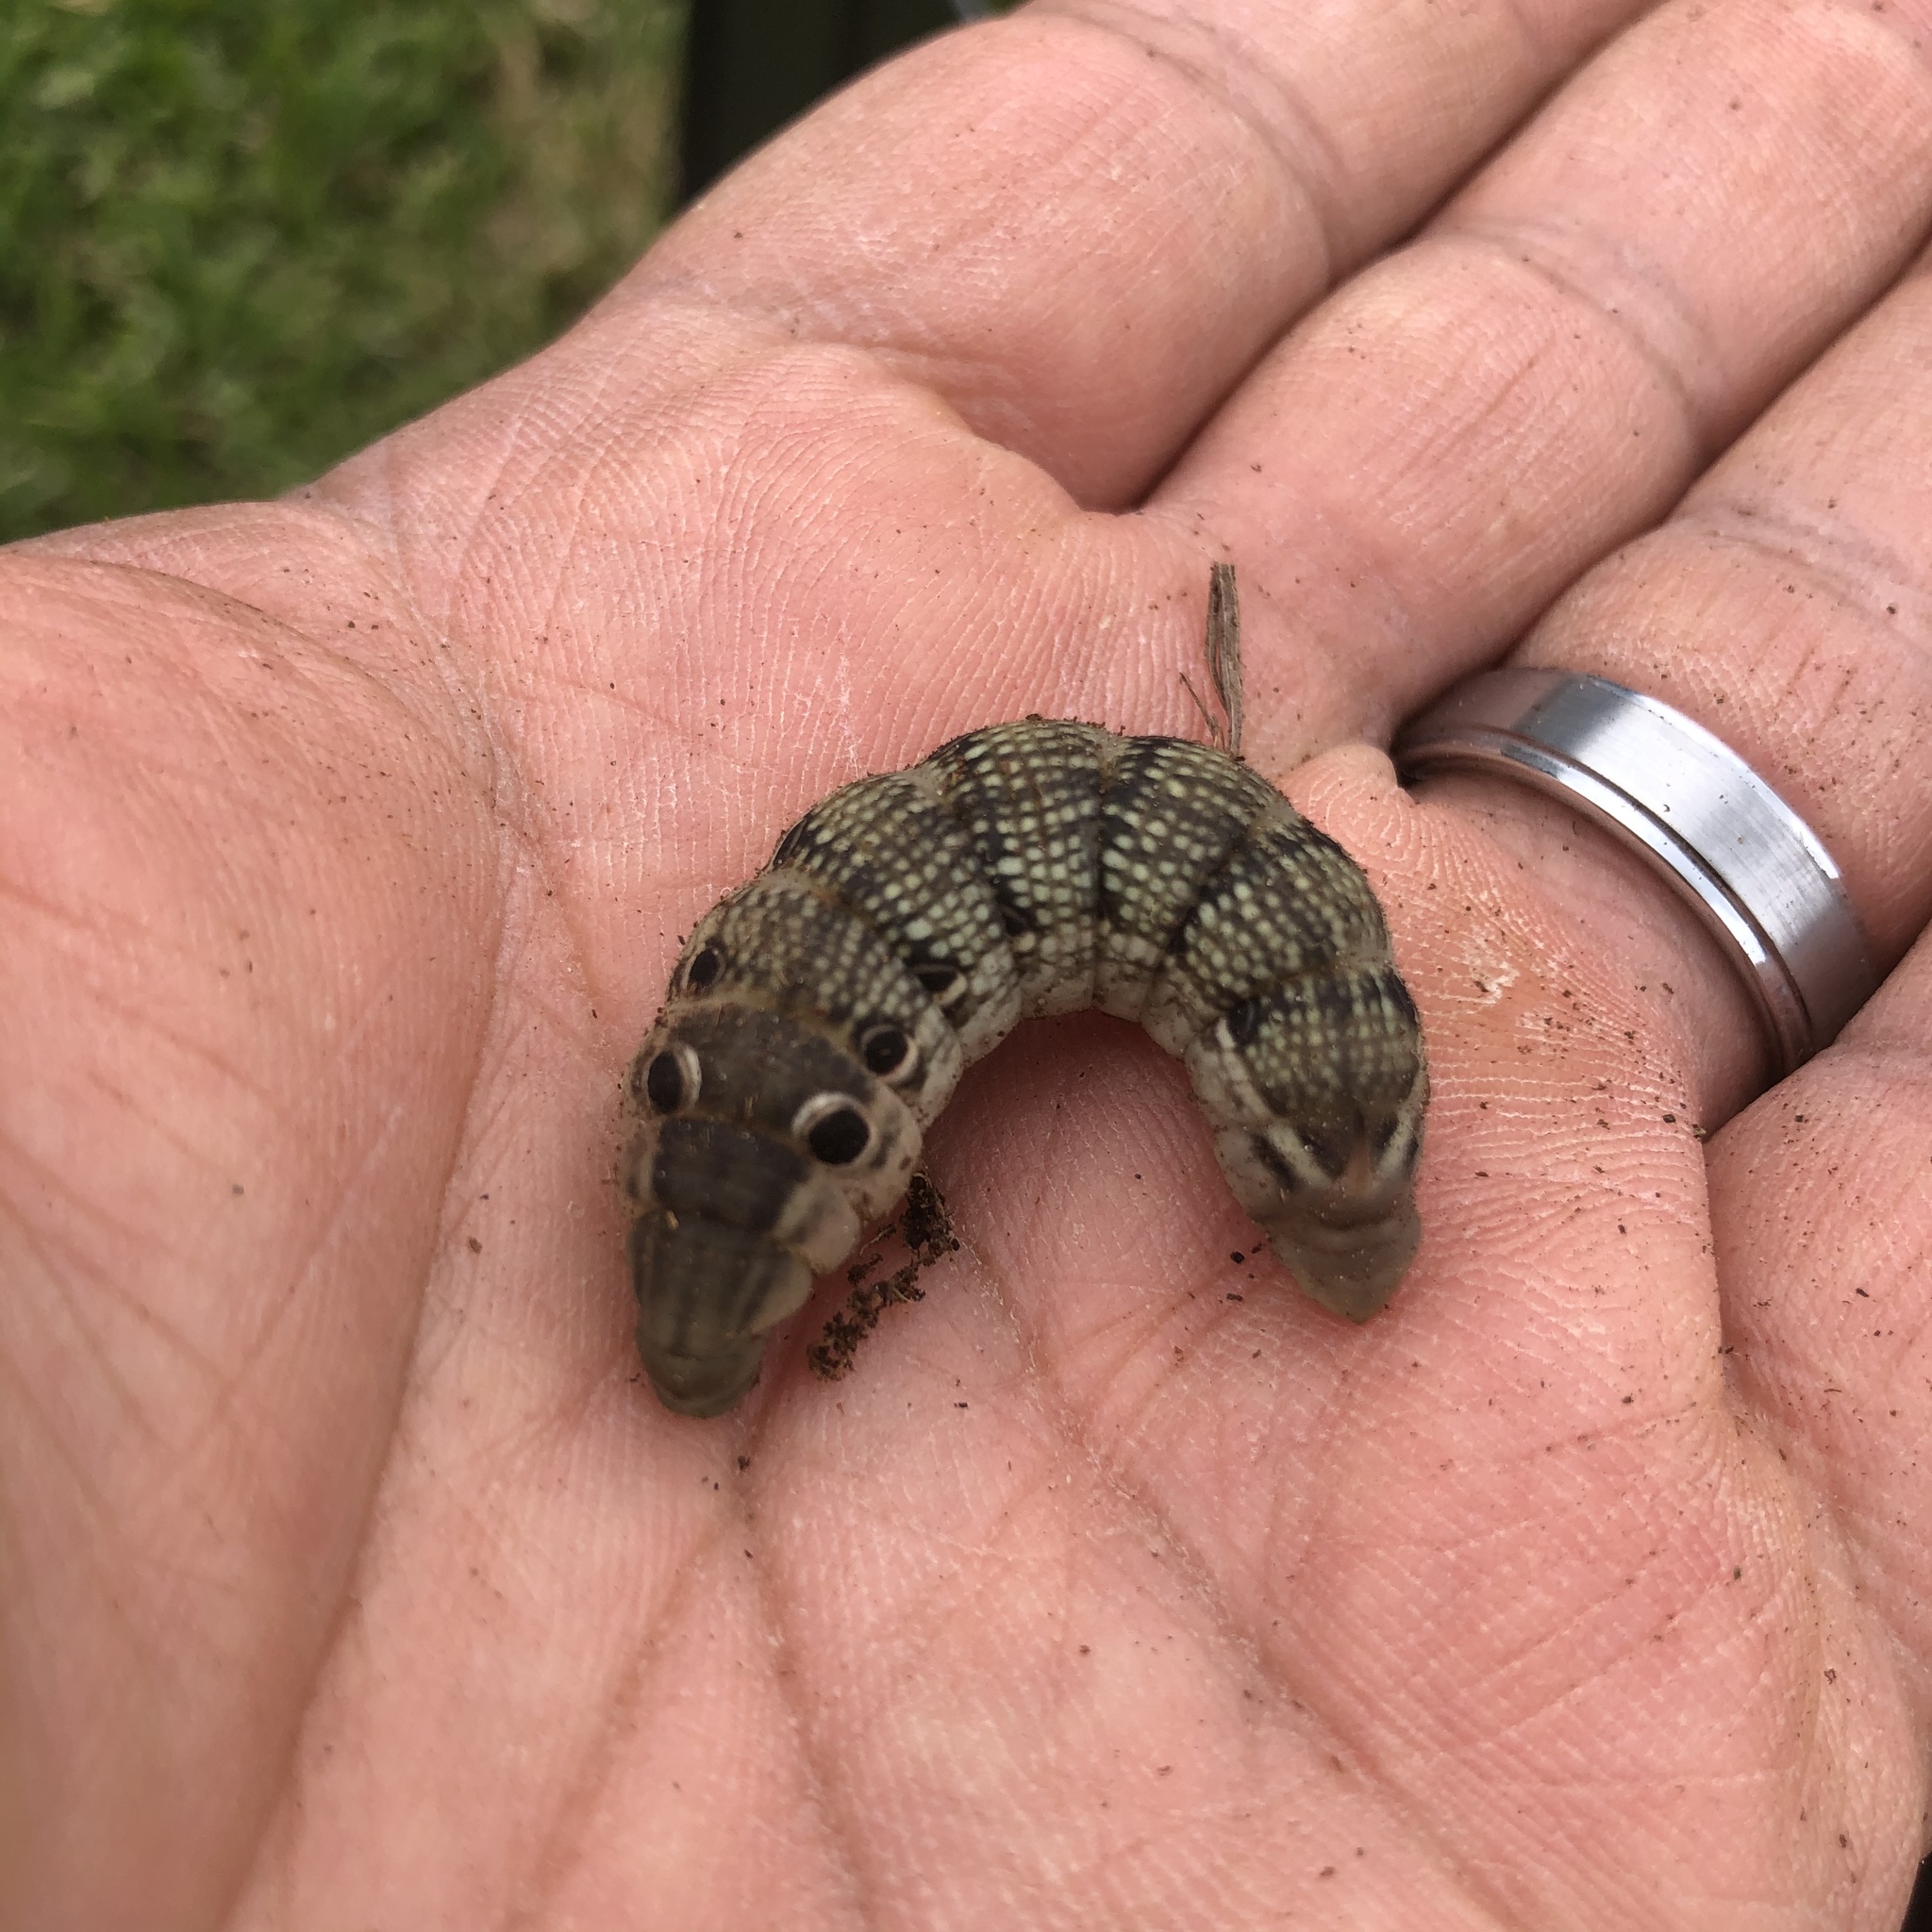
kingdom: Animalia
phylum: Arthropoda
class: Insecta
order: Lepidoptera
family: Sphingidae
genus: Xylophanes
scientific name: Xylophanes tersa
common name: Tersa sphinx
